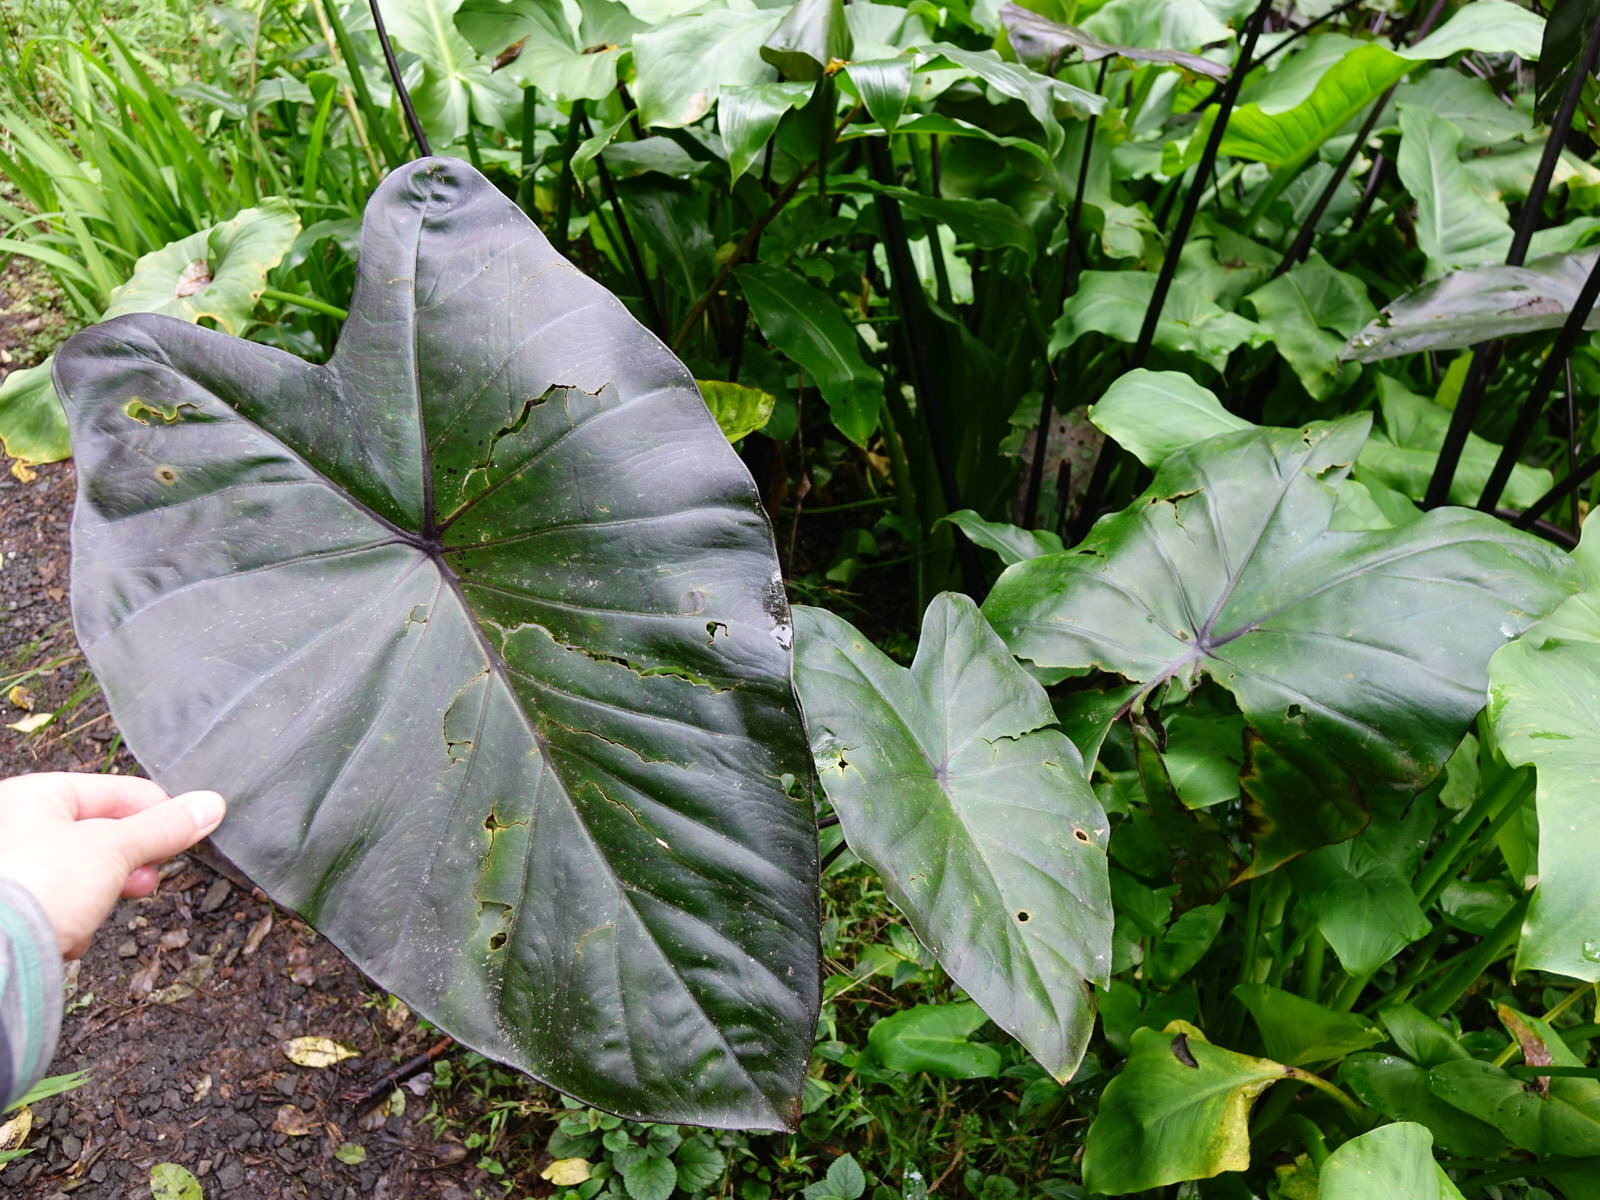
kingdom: Plantae
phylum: Tracheophyta
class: Liliopsida
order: Alismatales
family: Araceae
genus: Colocasia
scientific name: Colocasia esculenta
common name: Taro
